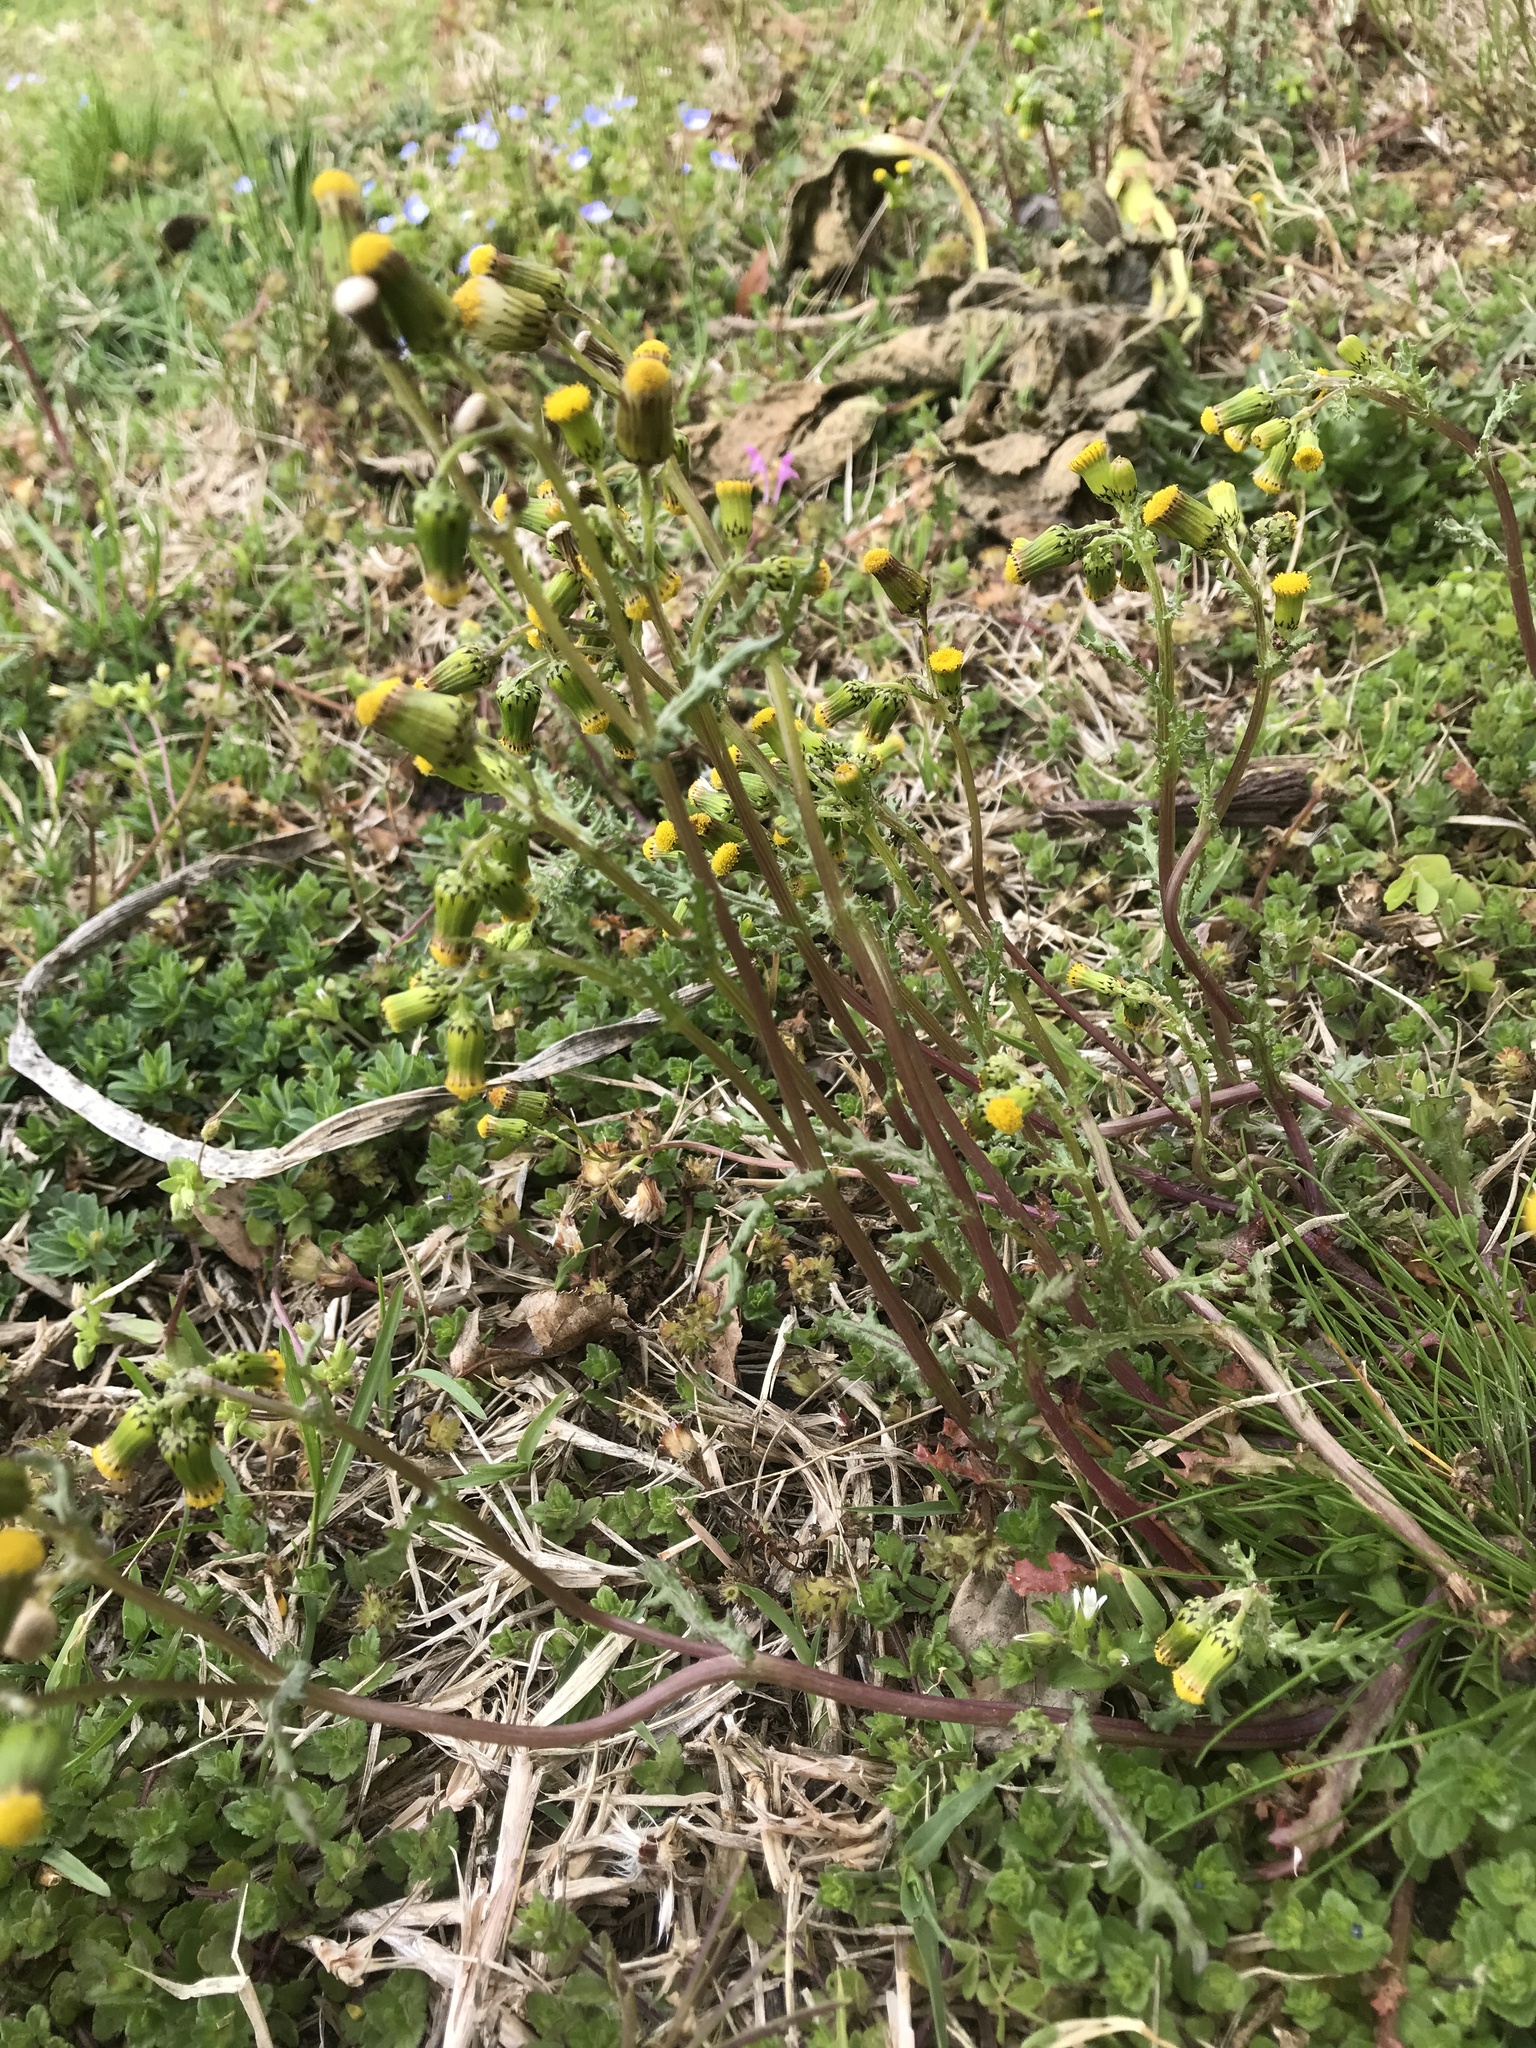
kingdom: Plantae
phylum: Tracheophyta
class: Magnoliopsida
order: Asterales
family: Asteraceae
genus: Senecio
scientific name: Senecio vulgaris
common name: Old-man-in-the-spring
